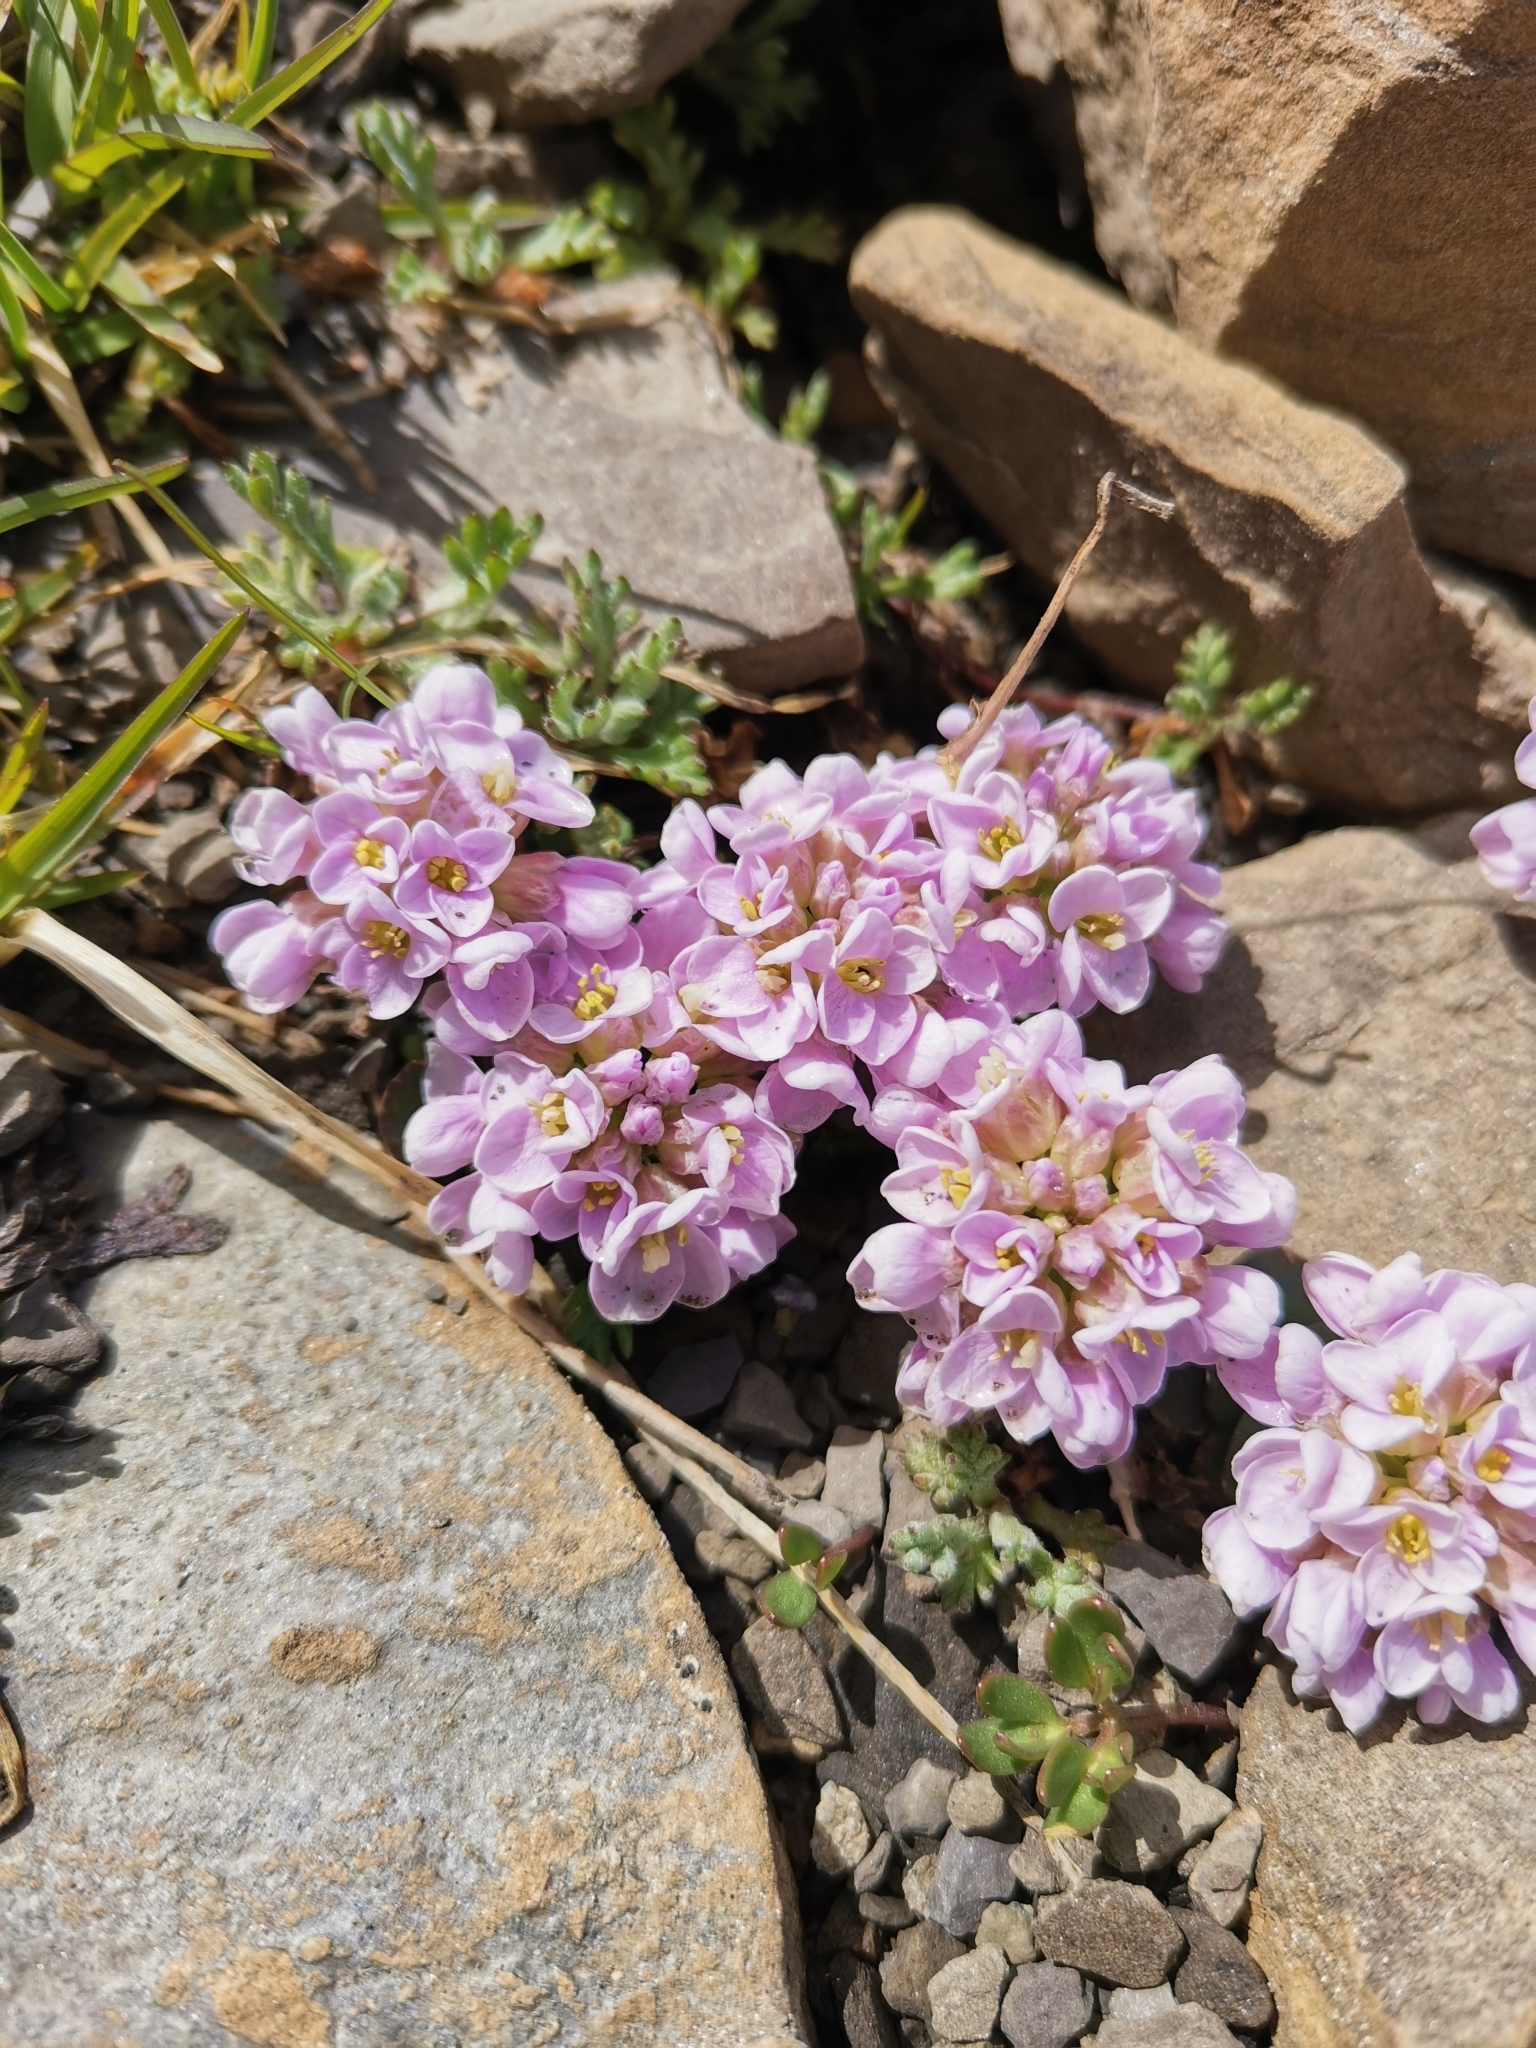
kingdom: Plantae
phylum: Tracheophyta
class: Magnoliopsida
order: Brassicales
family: Brassicaceae
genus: Noccaea
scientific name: Noccaea rotundifolia
